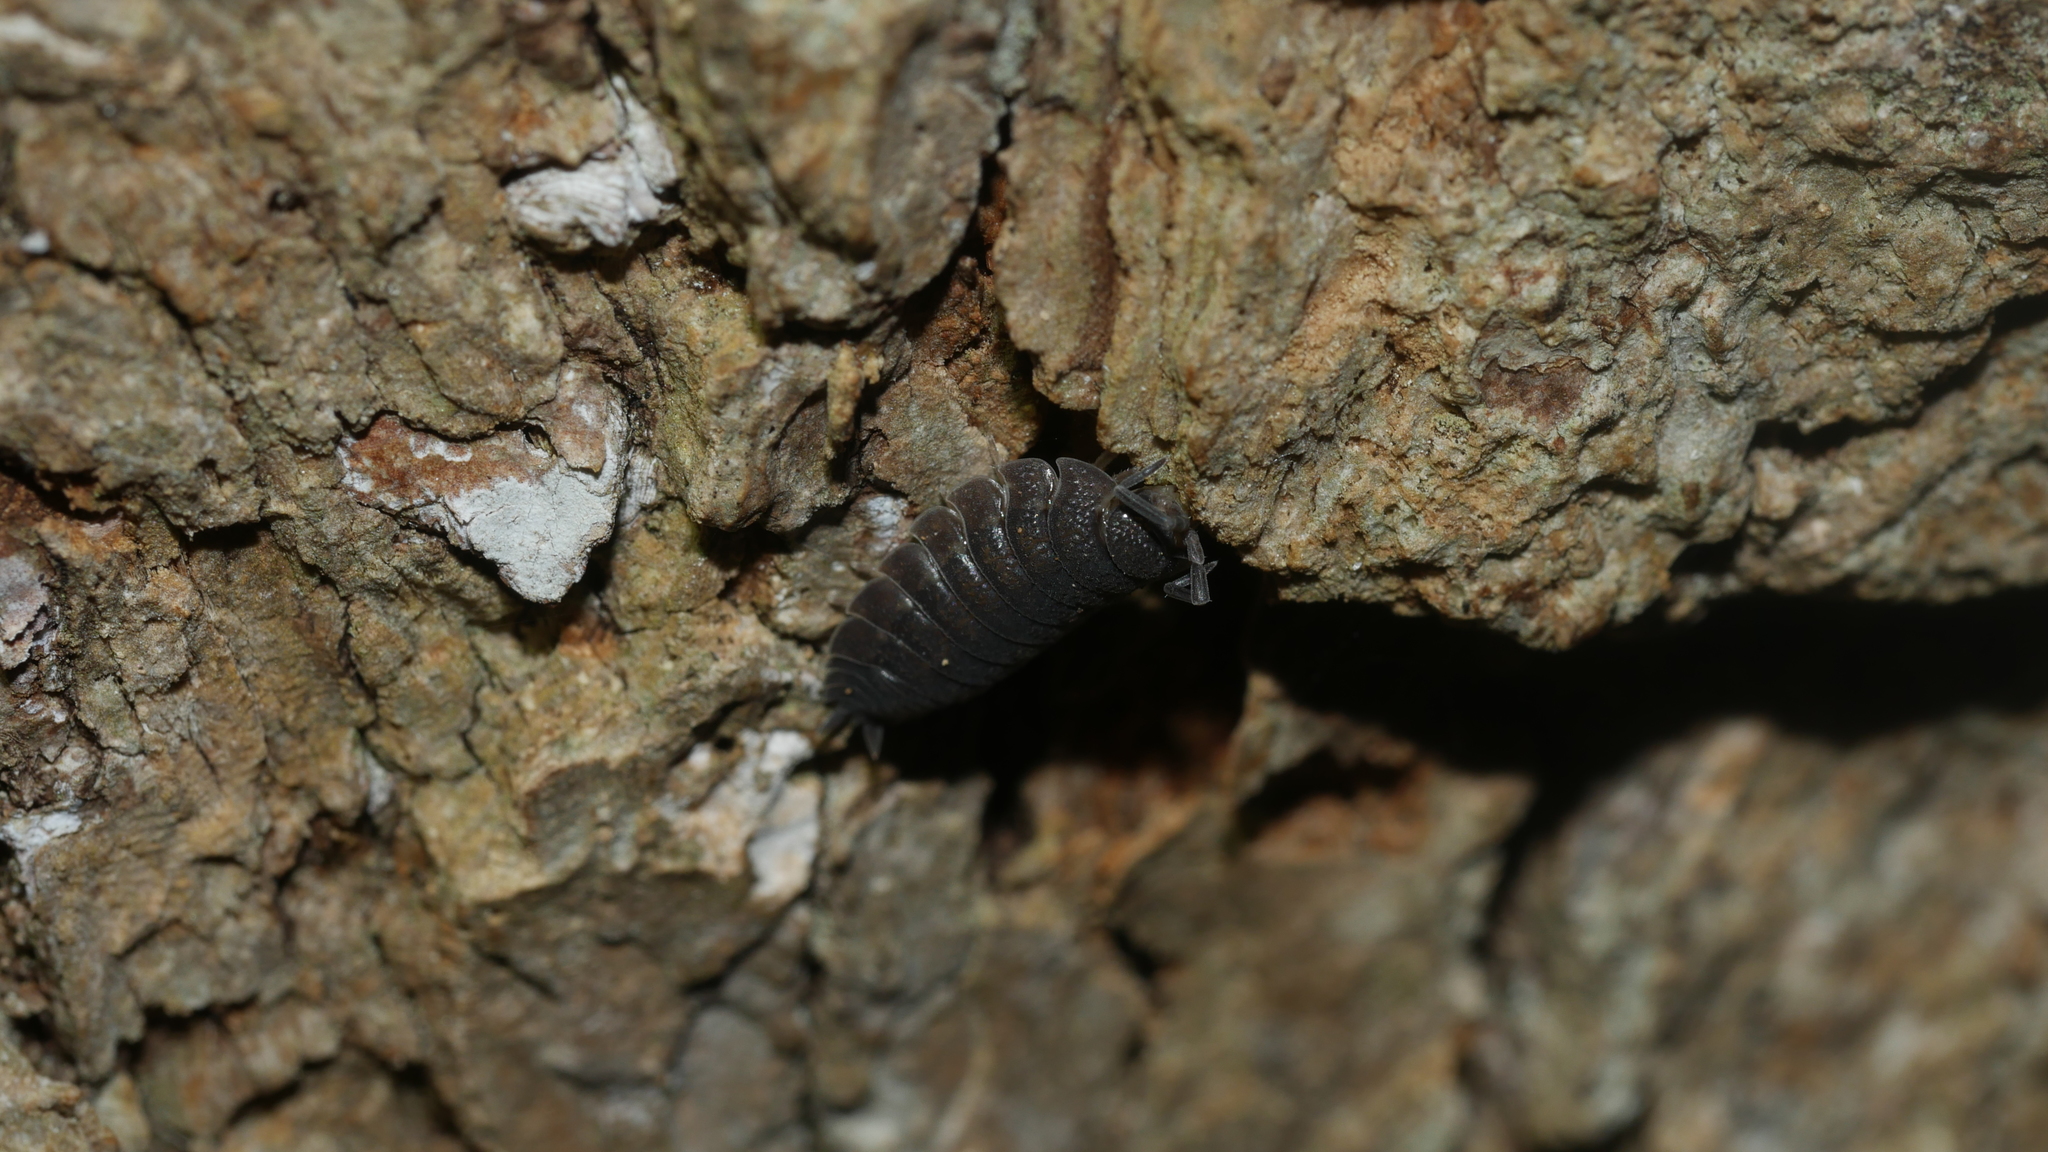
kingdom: Animalia
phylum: Arthropoda
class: Malacostraca
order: Isopoda
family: Porcellionidae
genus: Porcellio
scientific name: Porcellio scaber
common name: Common rough woodlouse
